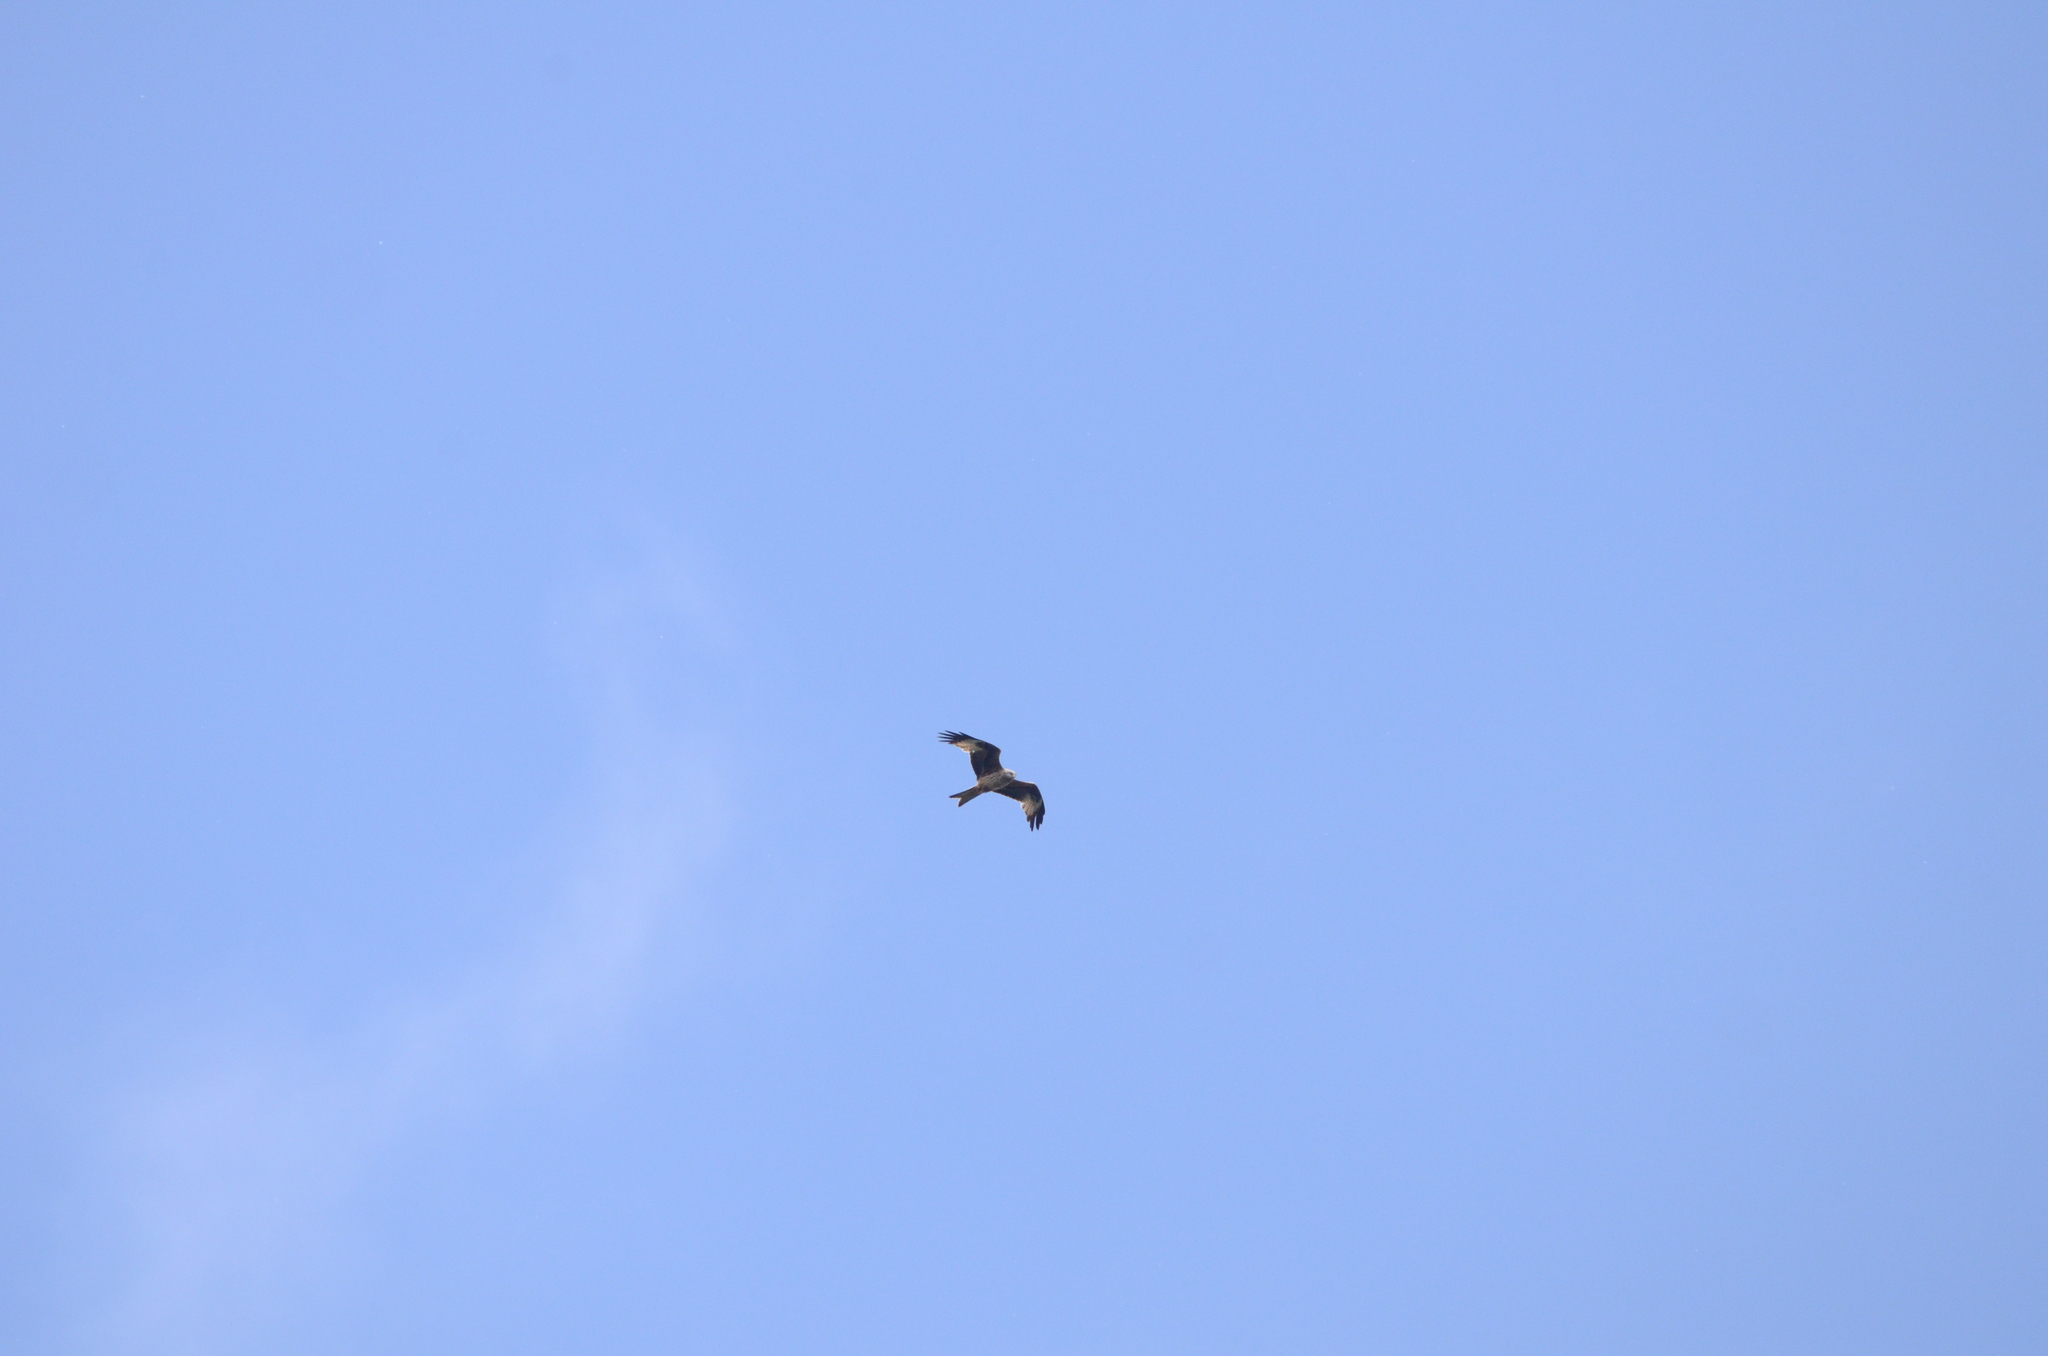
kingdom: Animalia
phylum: Chordata
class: Aves
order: Accipitriformes
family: Accipitridae
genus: Milvus
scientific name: Milvus milvus
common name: Red kite
